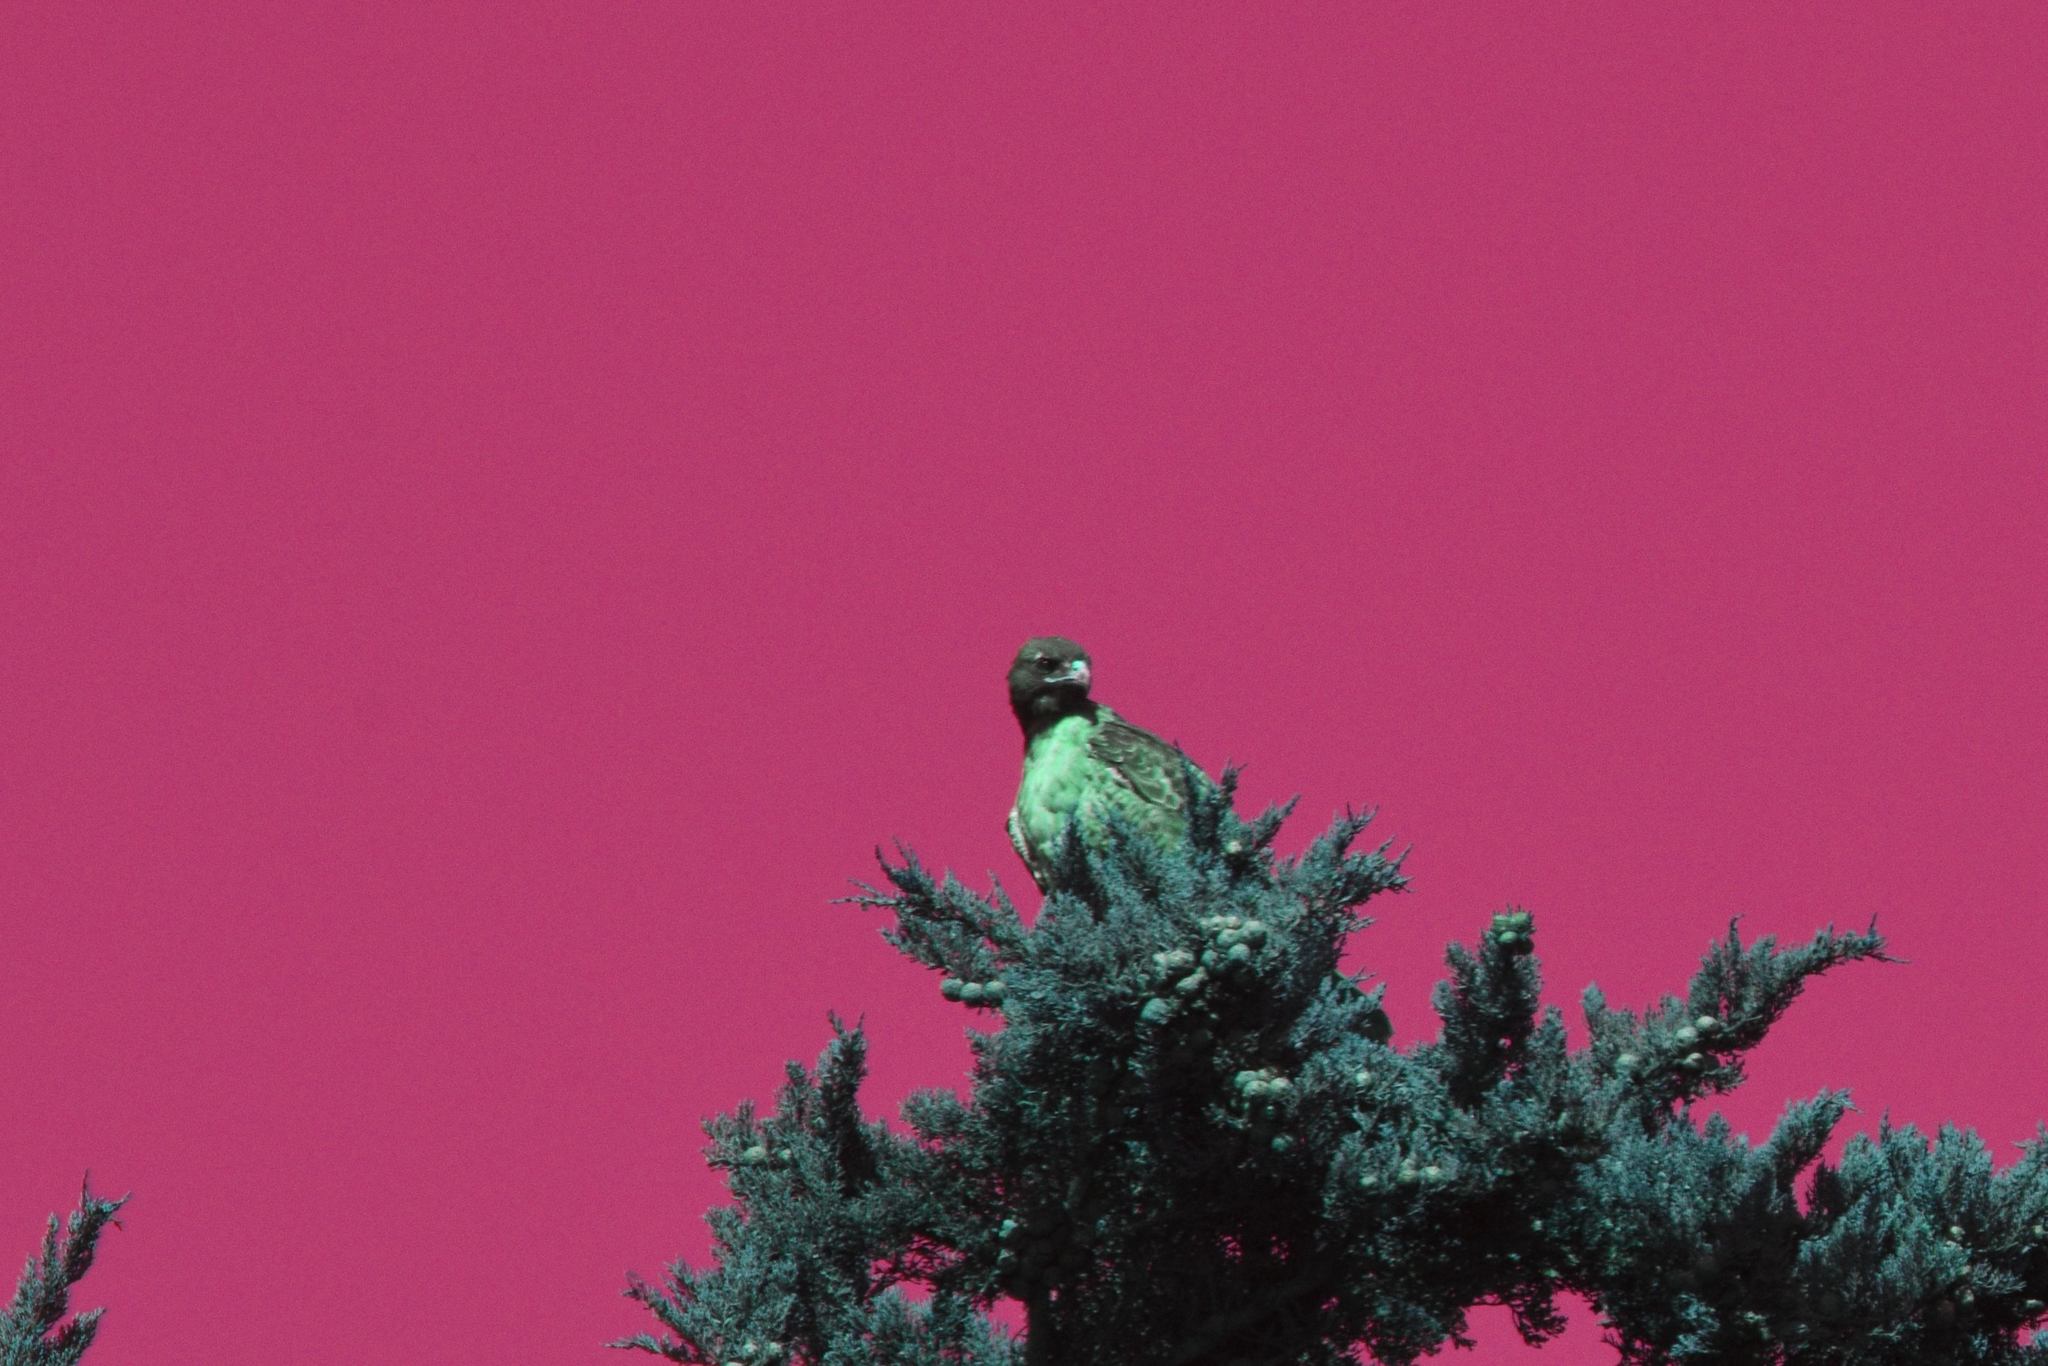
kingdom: Animalia
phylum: Chordata
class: Aves
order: Accipitriformes
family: Accipitridae
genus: Buteo
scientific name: Buteo jamaicensis
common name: Red-tailed hawk
